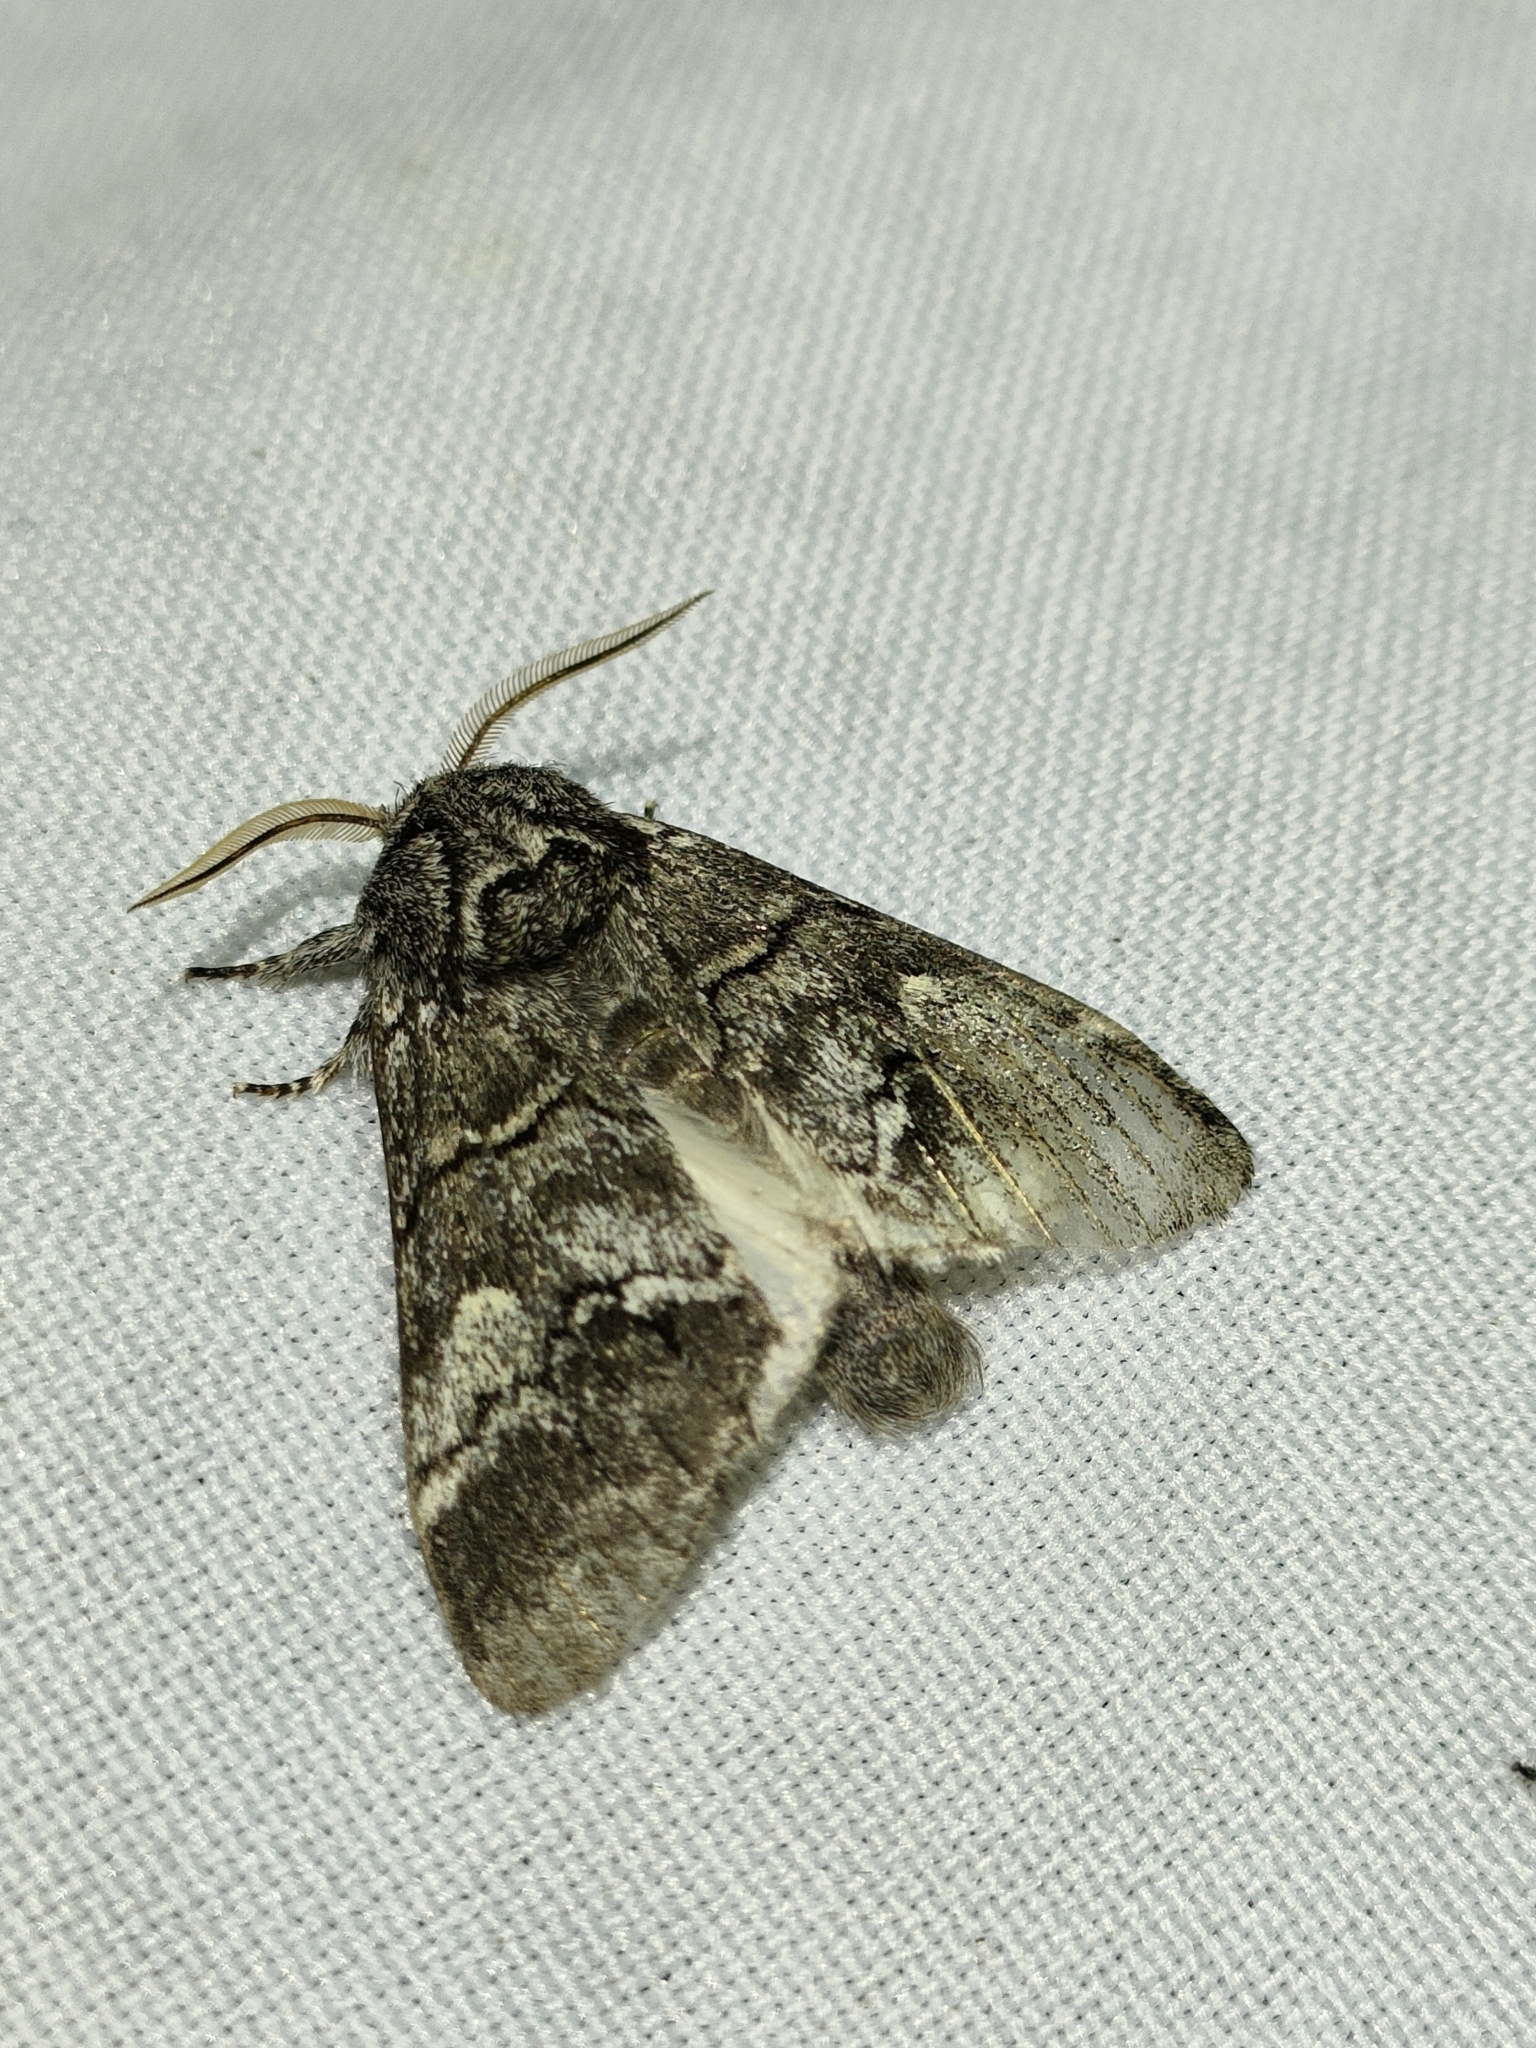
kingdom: Animalia
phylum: Arthropoda
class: Insecta
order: Lepidoptera
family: Notodontidae
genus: Drymonia
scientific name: Drymonia querna
